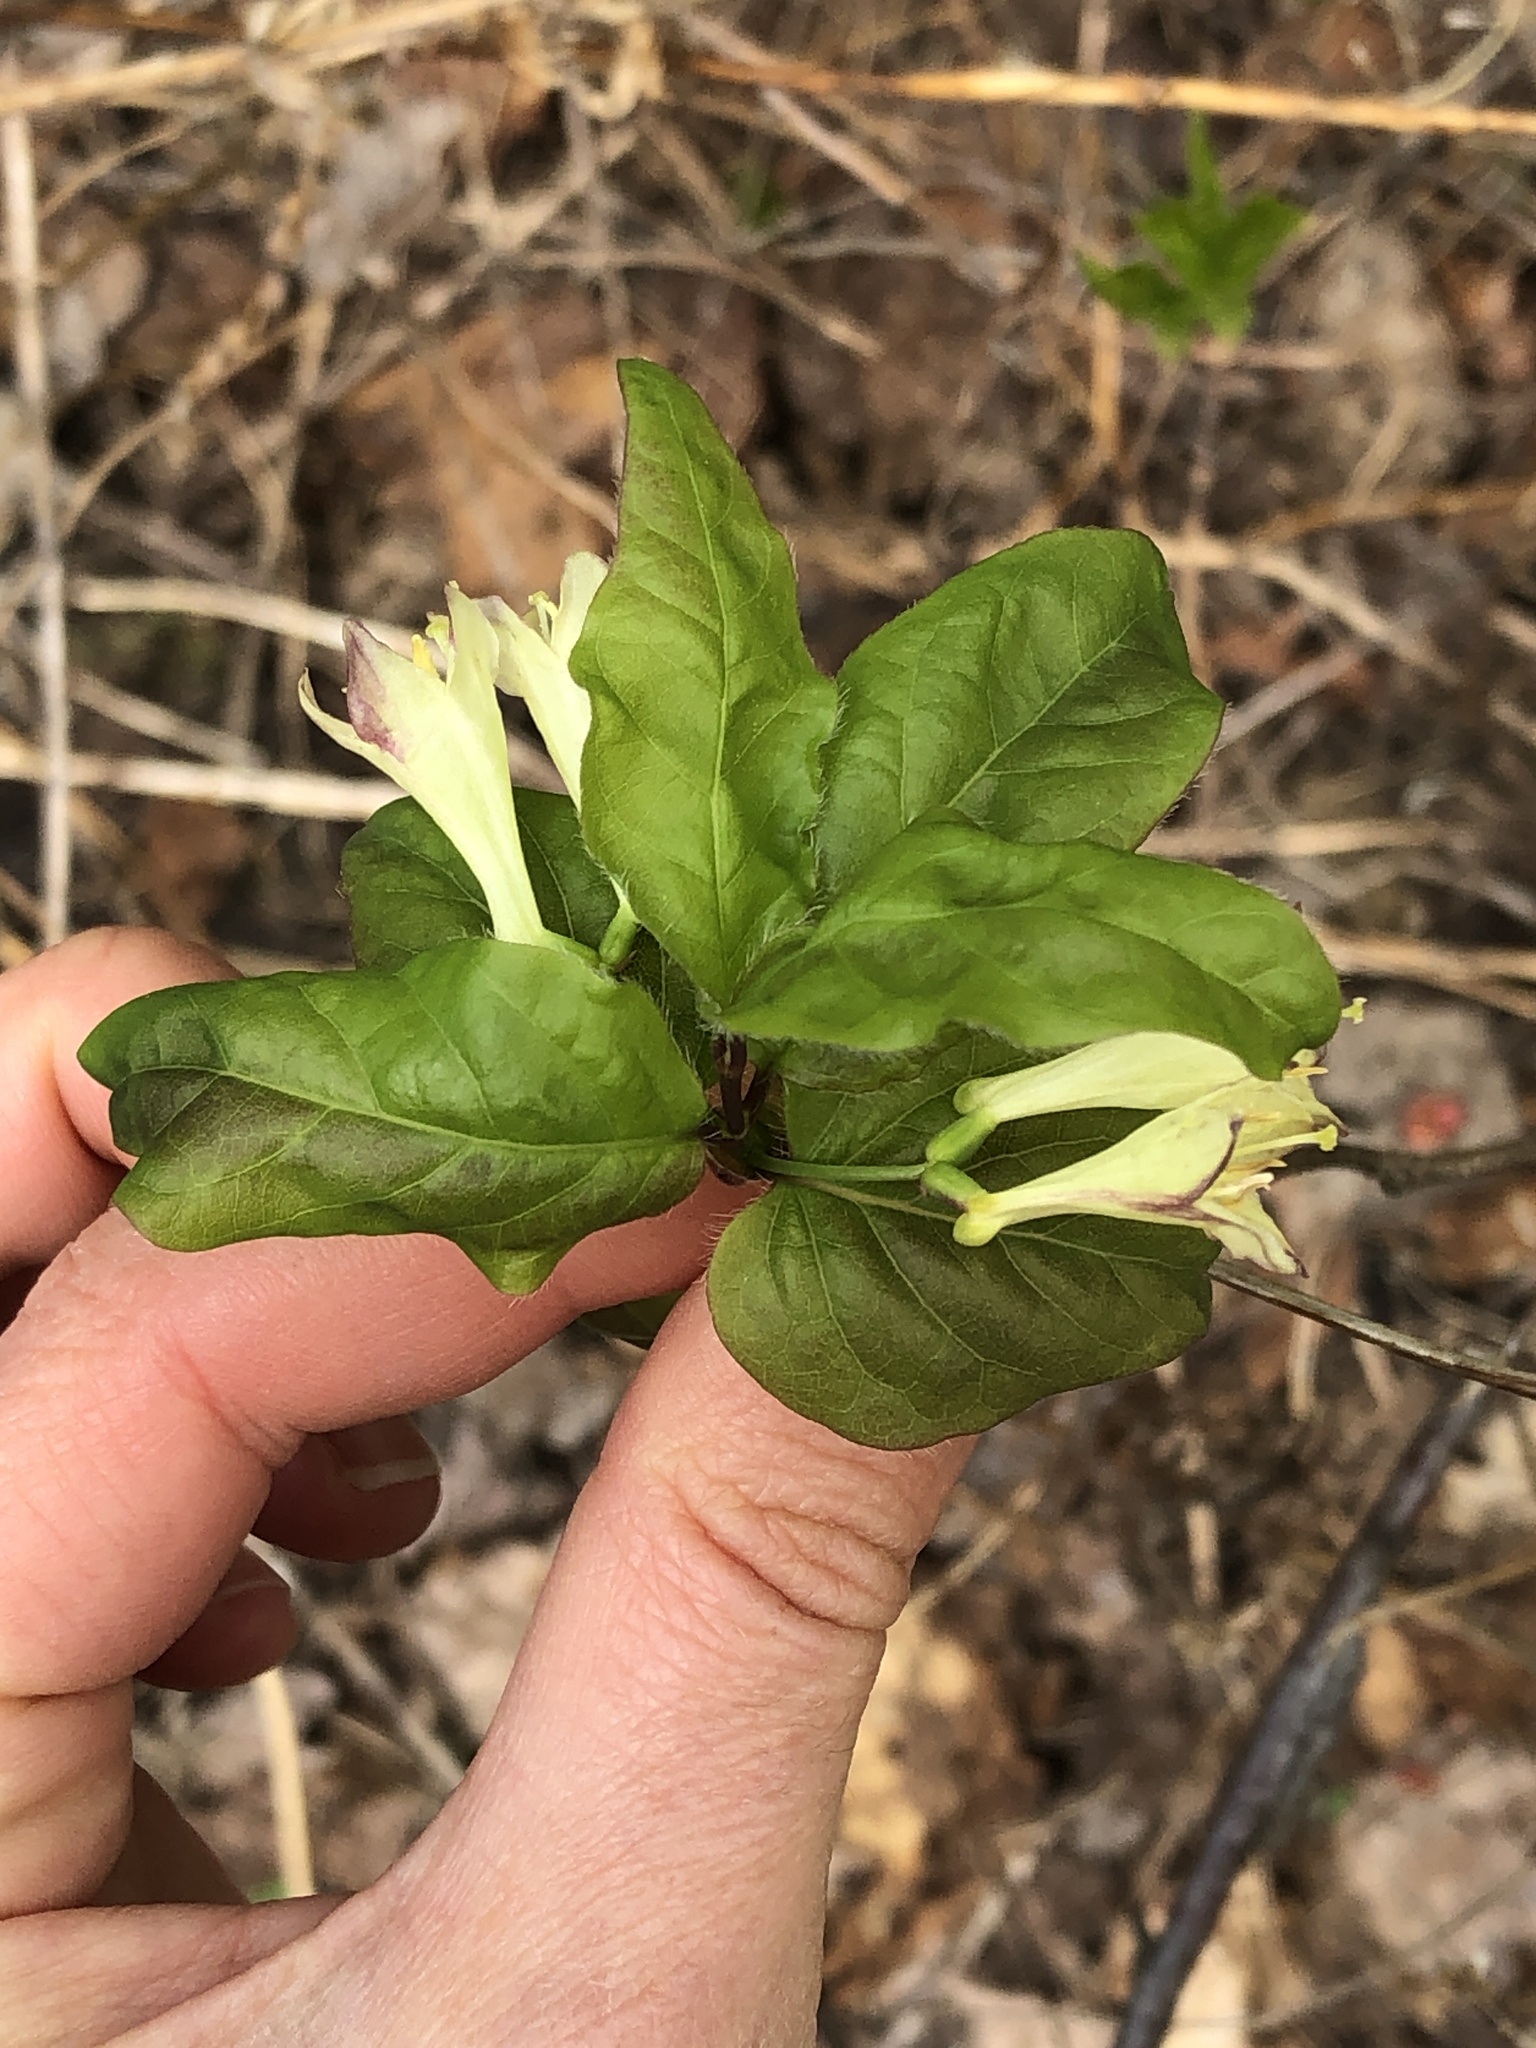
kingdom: Plantae
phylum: Tracheophyta
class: Magnoliopsida
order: Dipsacales
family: Caprifoliaceae
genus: Lonicera
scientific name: Lonicera canadensis
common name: American fly-honeysuckle
